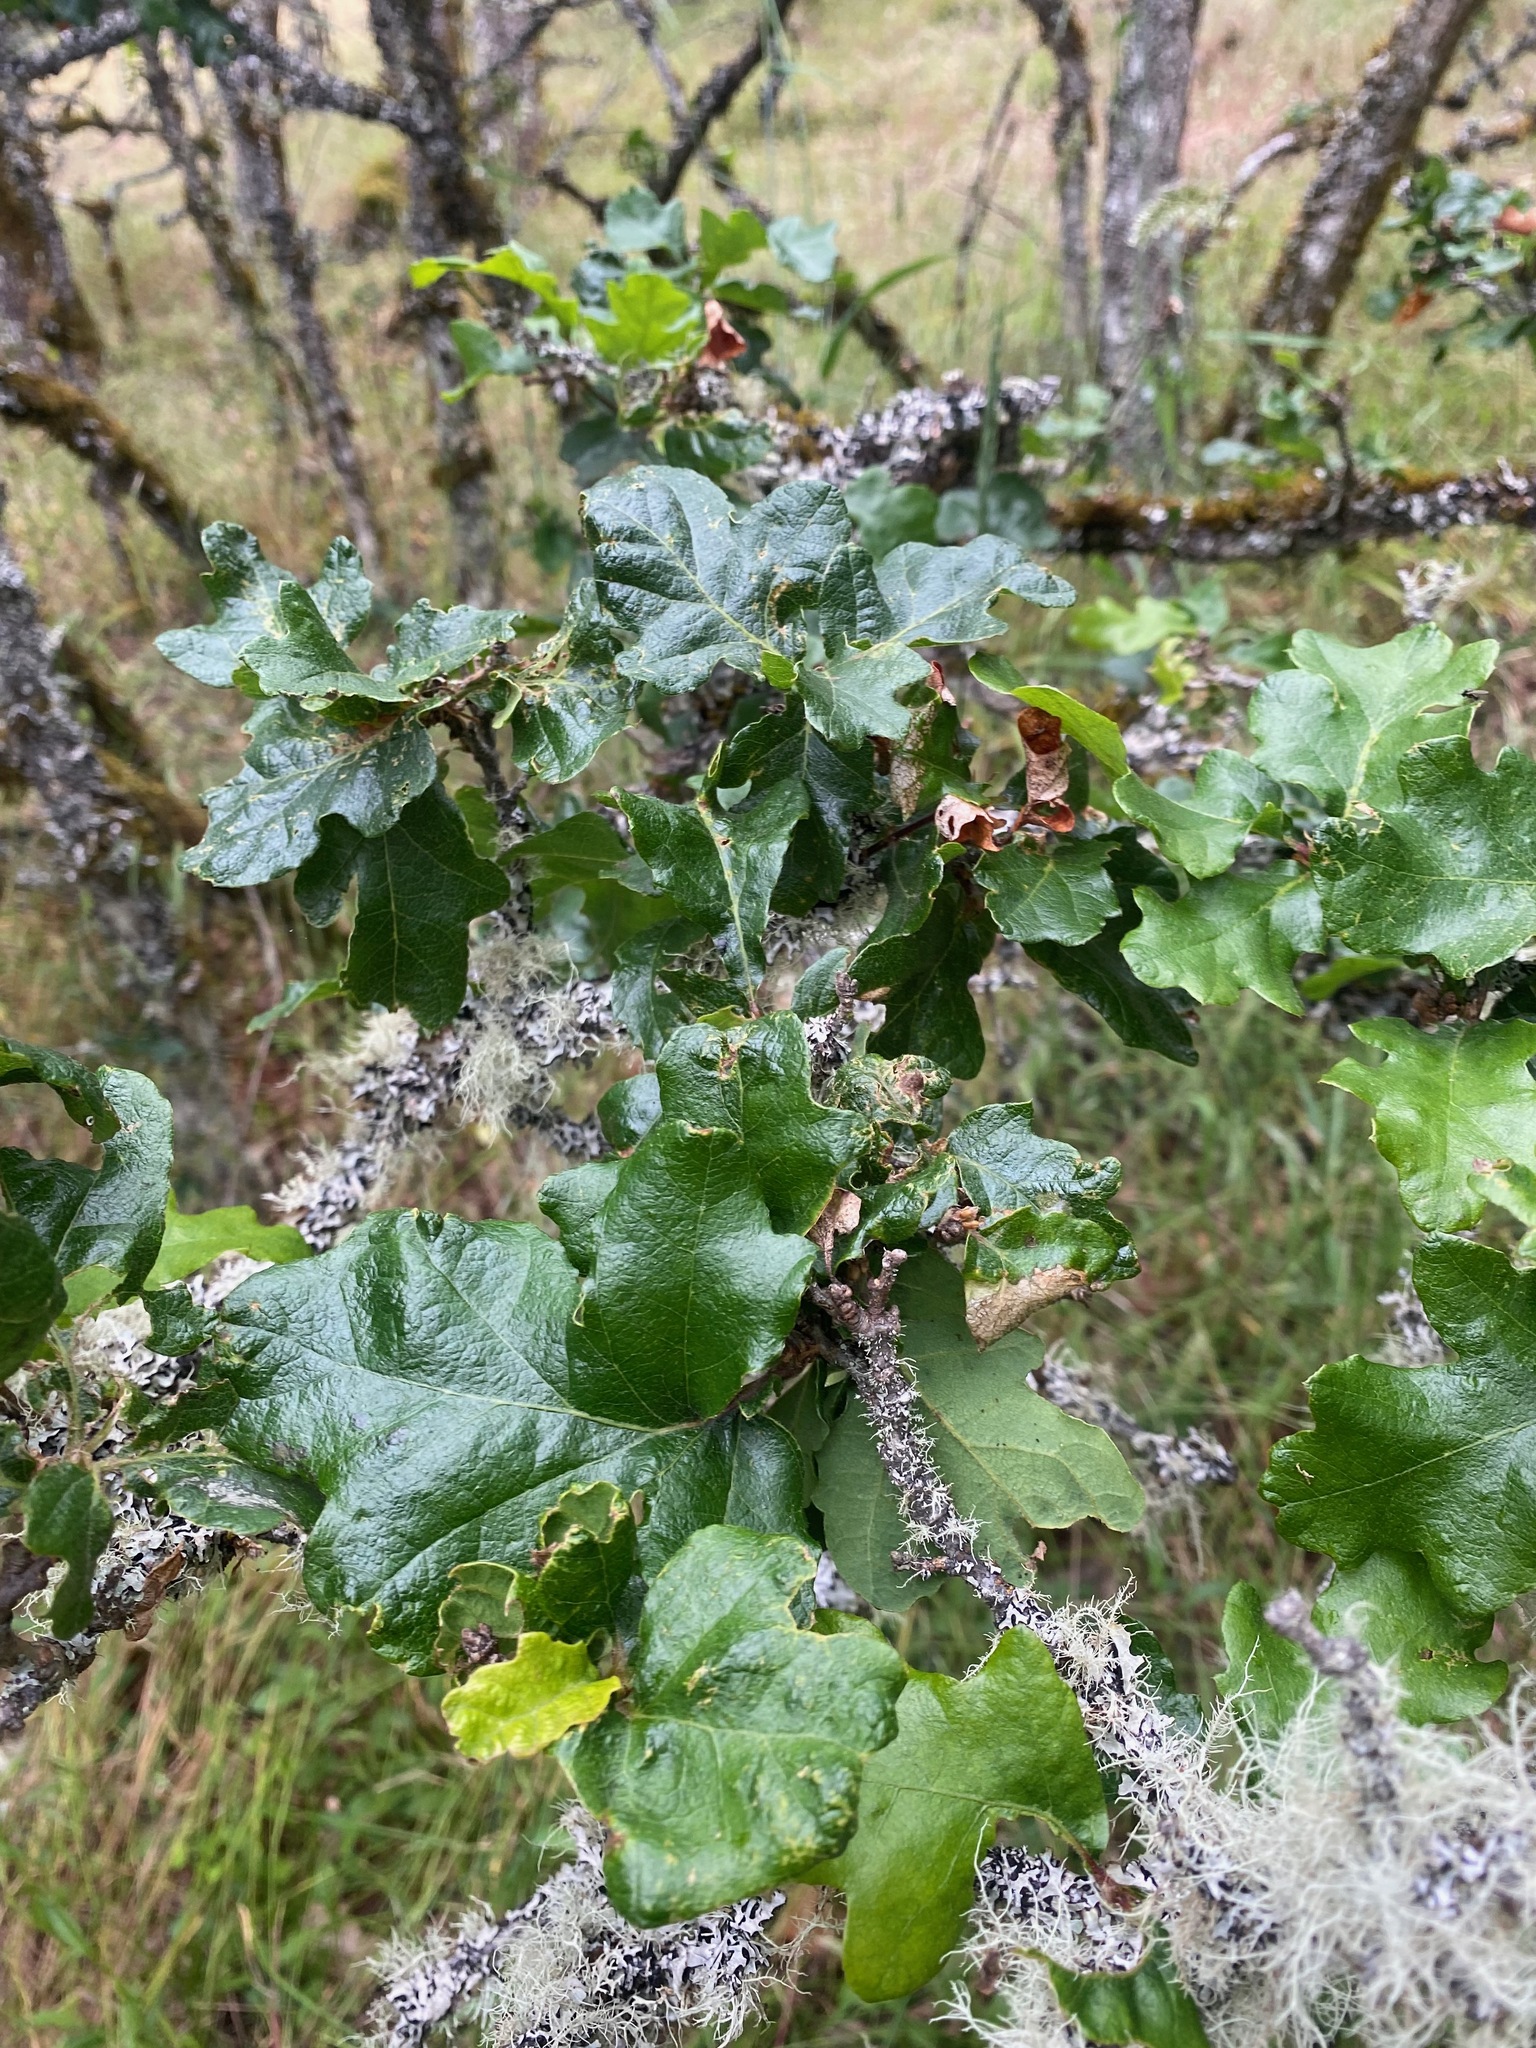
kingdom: Plantae
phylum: Tracheophyta
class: Magnoliopsida
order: Fagales
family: Fagaceae
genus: Quercus
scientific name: Quercus garryana
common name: Garry oak
